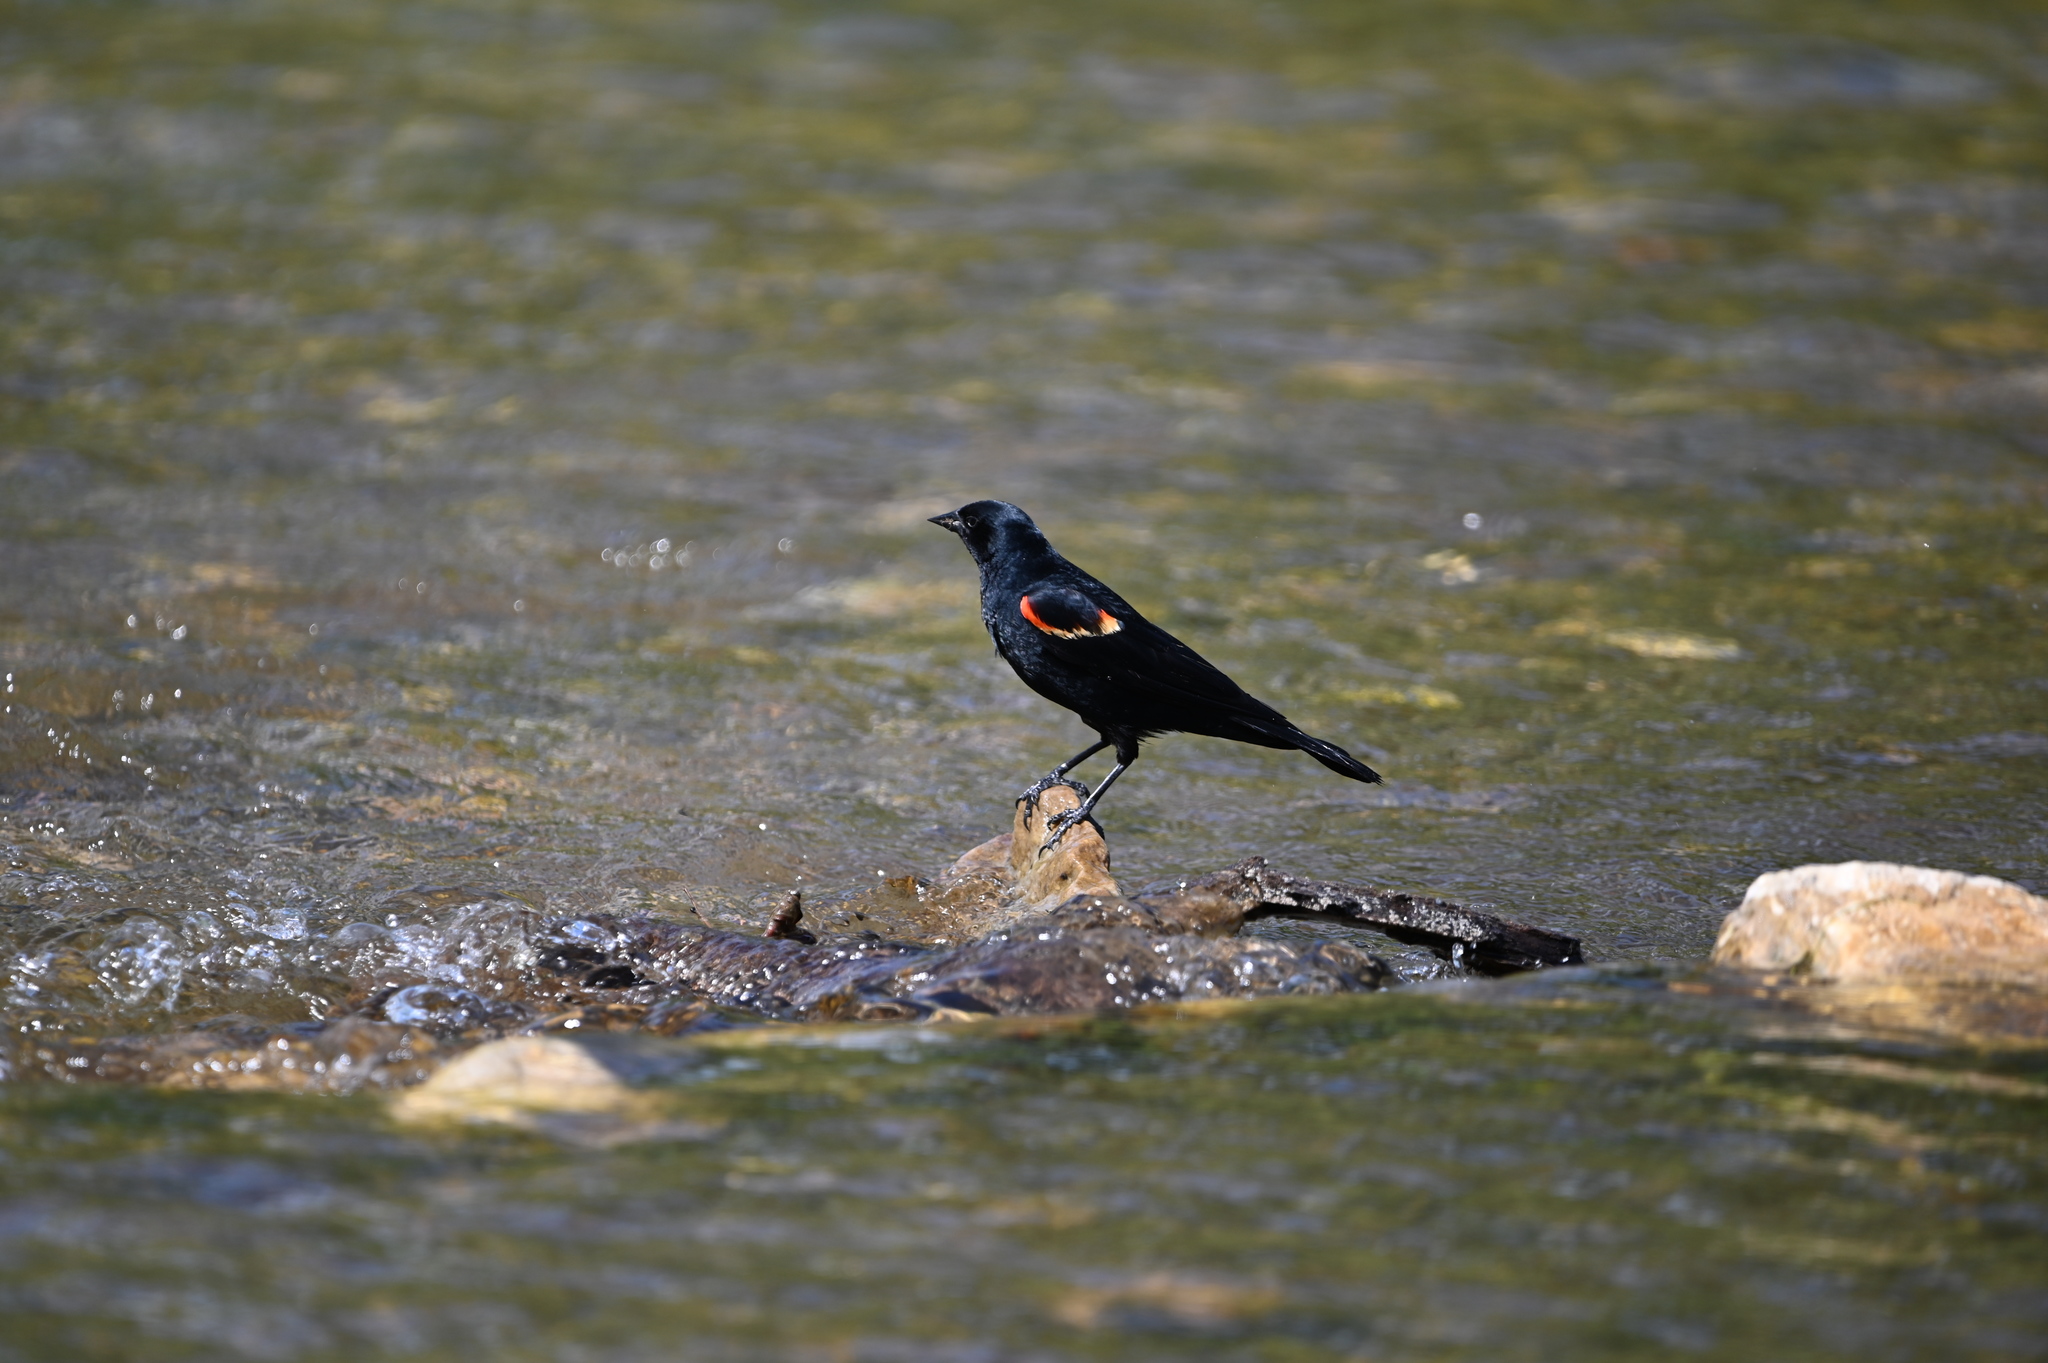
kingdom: Animalia
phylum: Chordata
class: Aves
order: Passeriformes
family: Icteridae
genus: Agelaius
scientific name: Agelaius phoeniceus
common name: Red-winged blackbird
